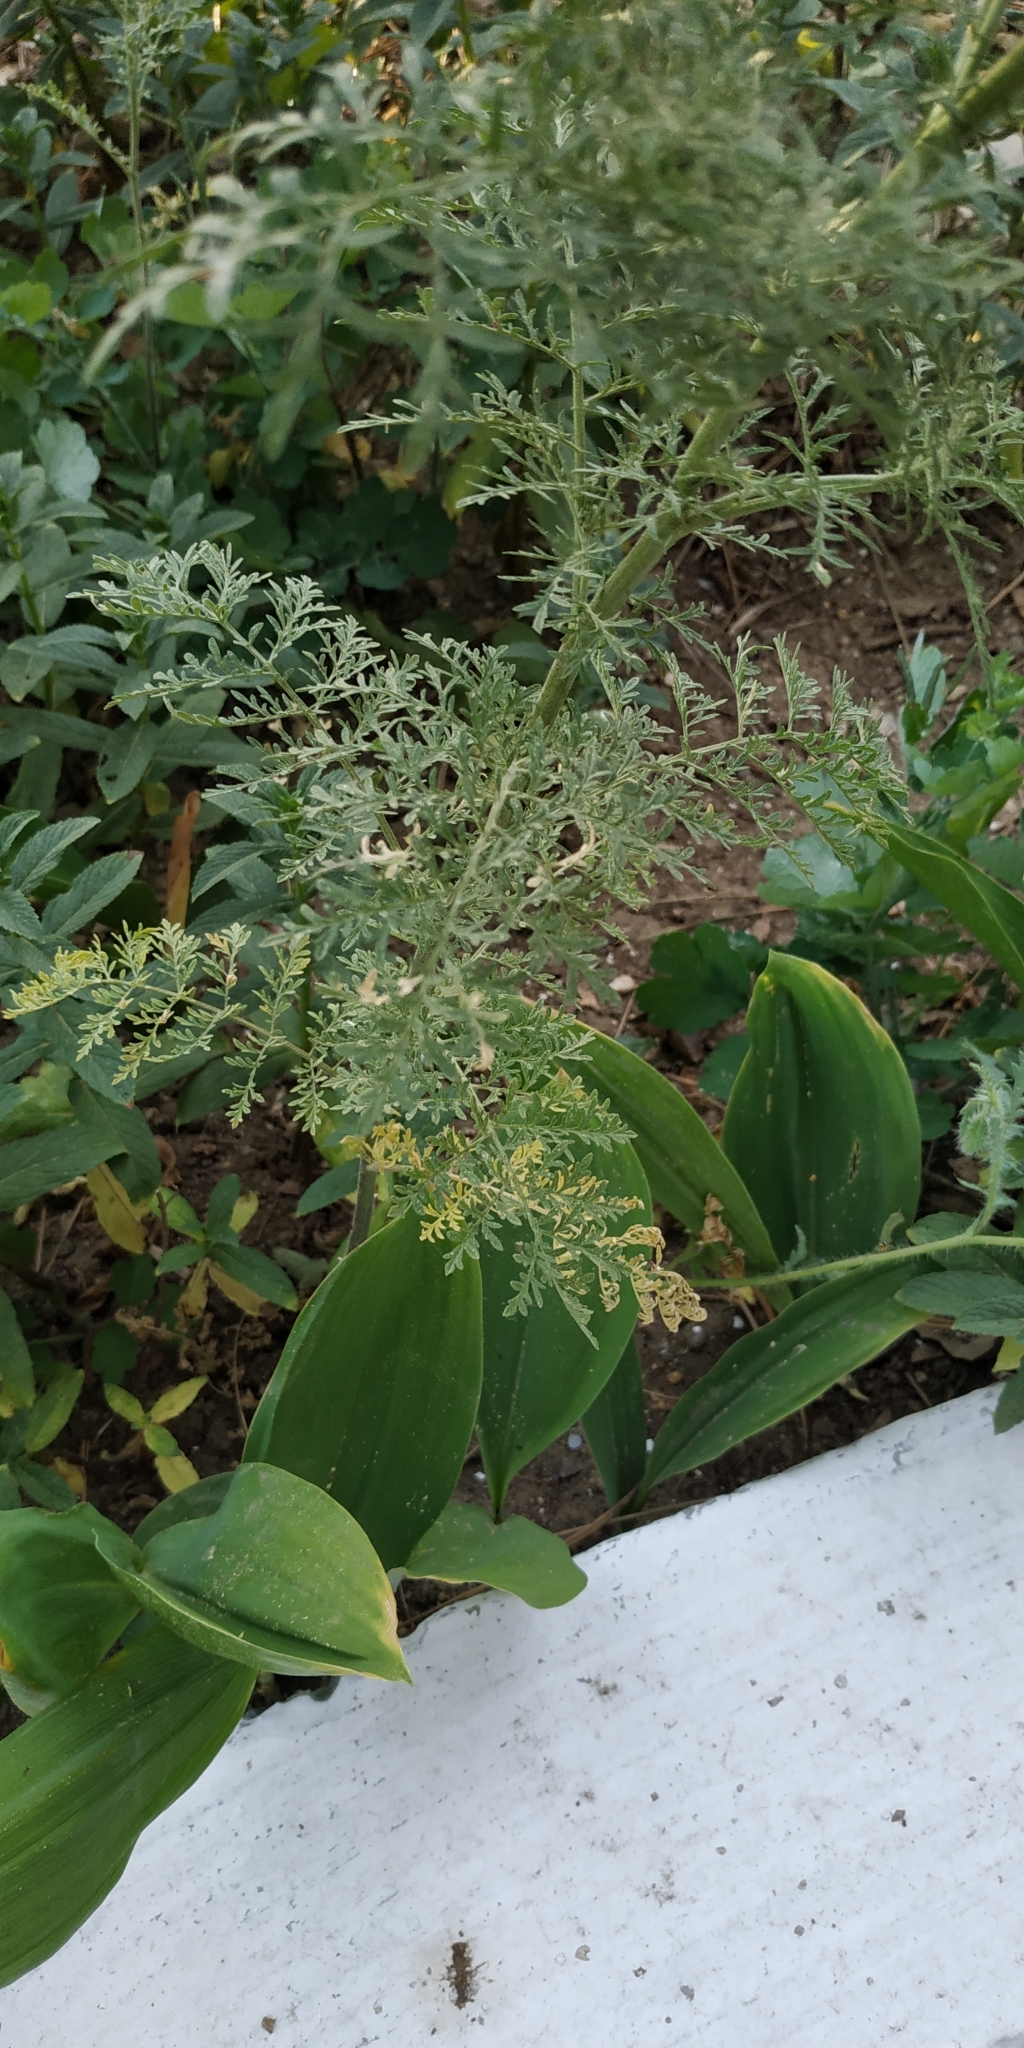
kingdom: Plantae
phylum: Tracheophyta
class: Magnoliopsida
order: Brassicales
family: Brassicaceae
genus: Descurainia
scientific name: Descurainia sophia
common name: Flixweed
